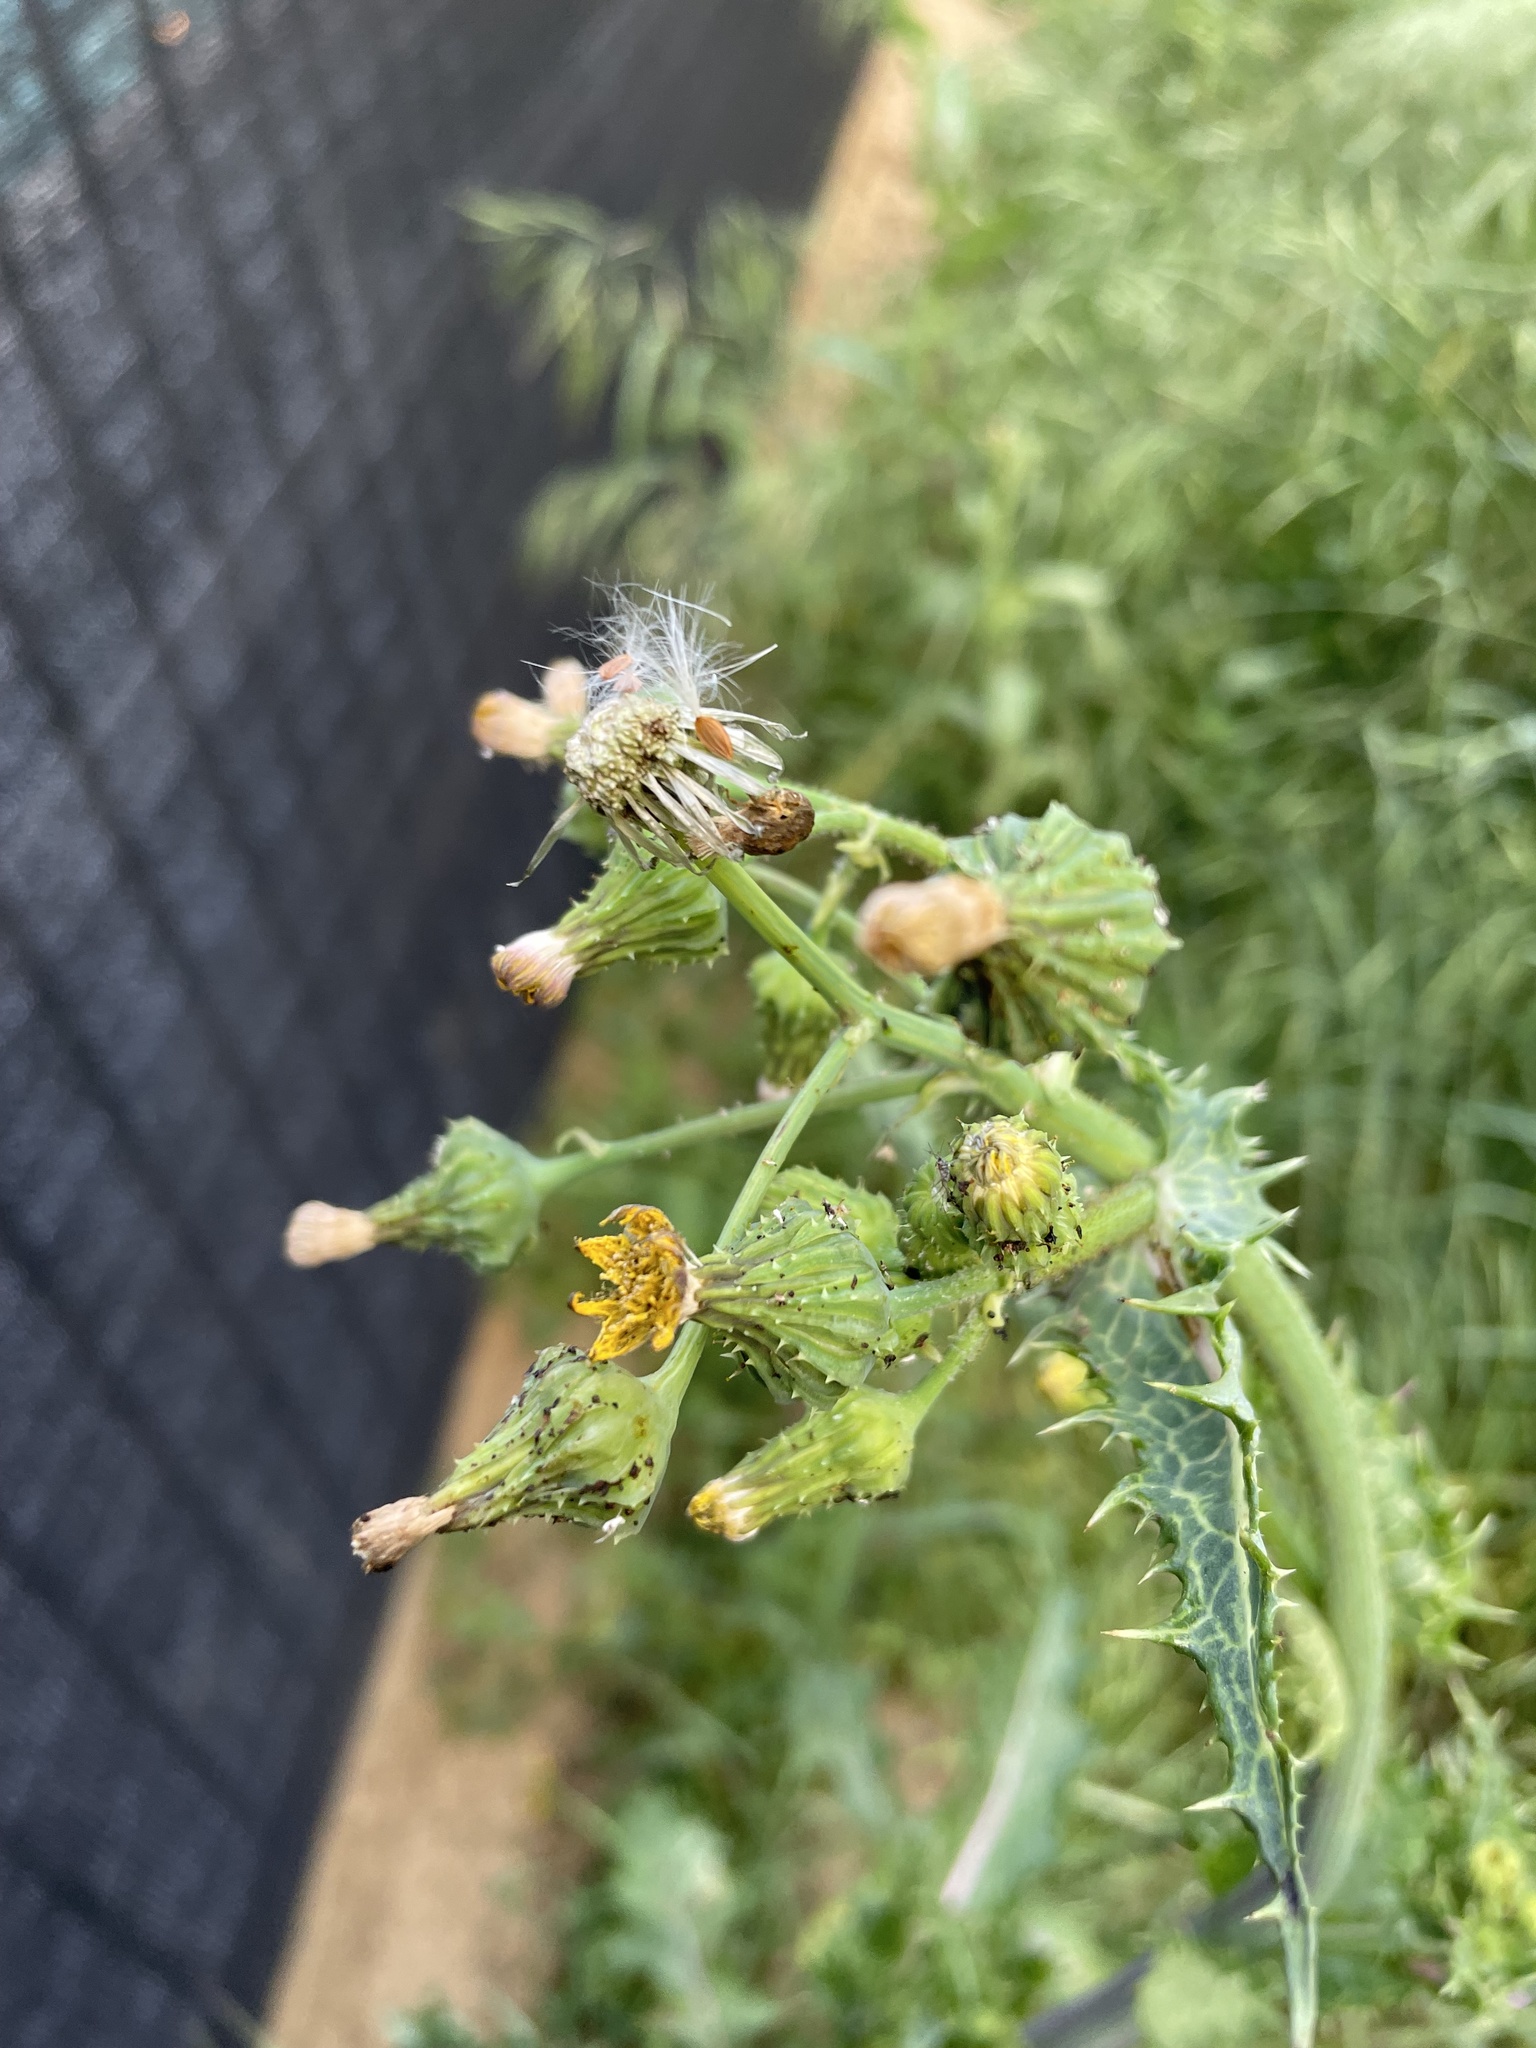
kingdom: Plantae
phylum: Tracheophyta
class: Magnoliopsida
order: Asterales
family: Asteraceae
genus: Sonchus
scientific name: Sonchus asper
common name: Prickly sow-thistle
